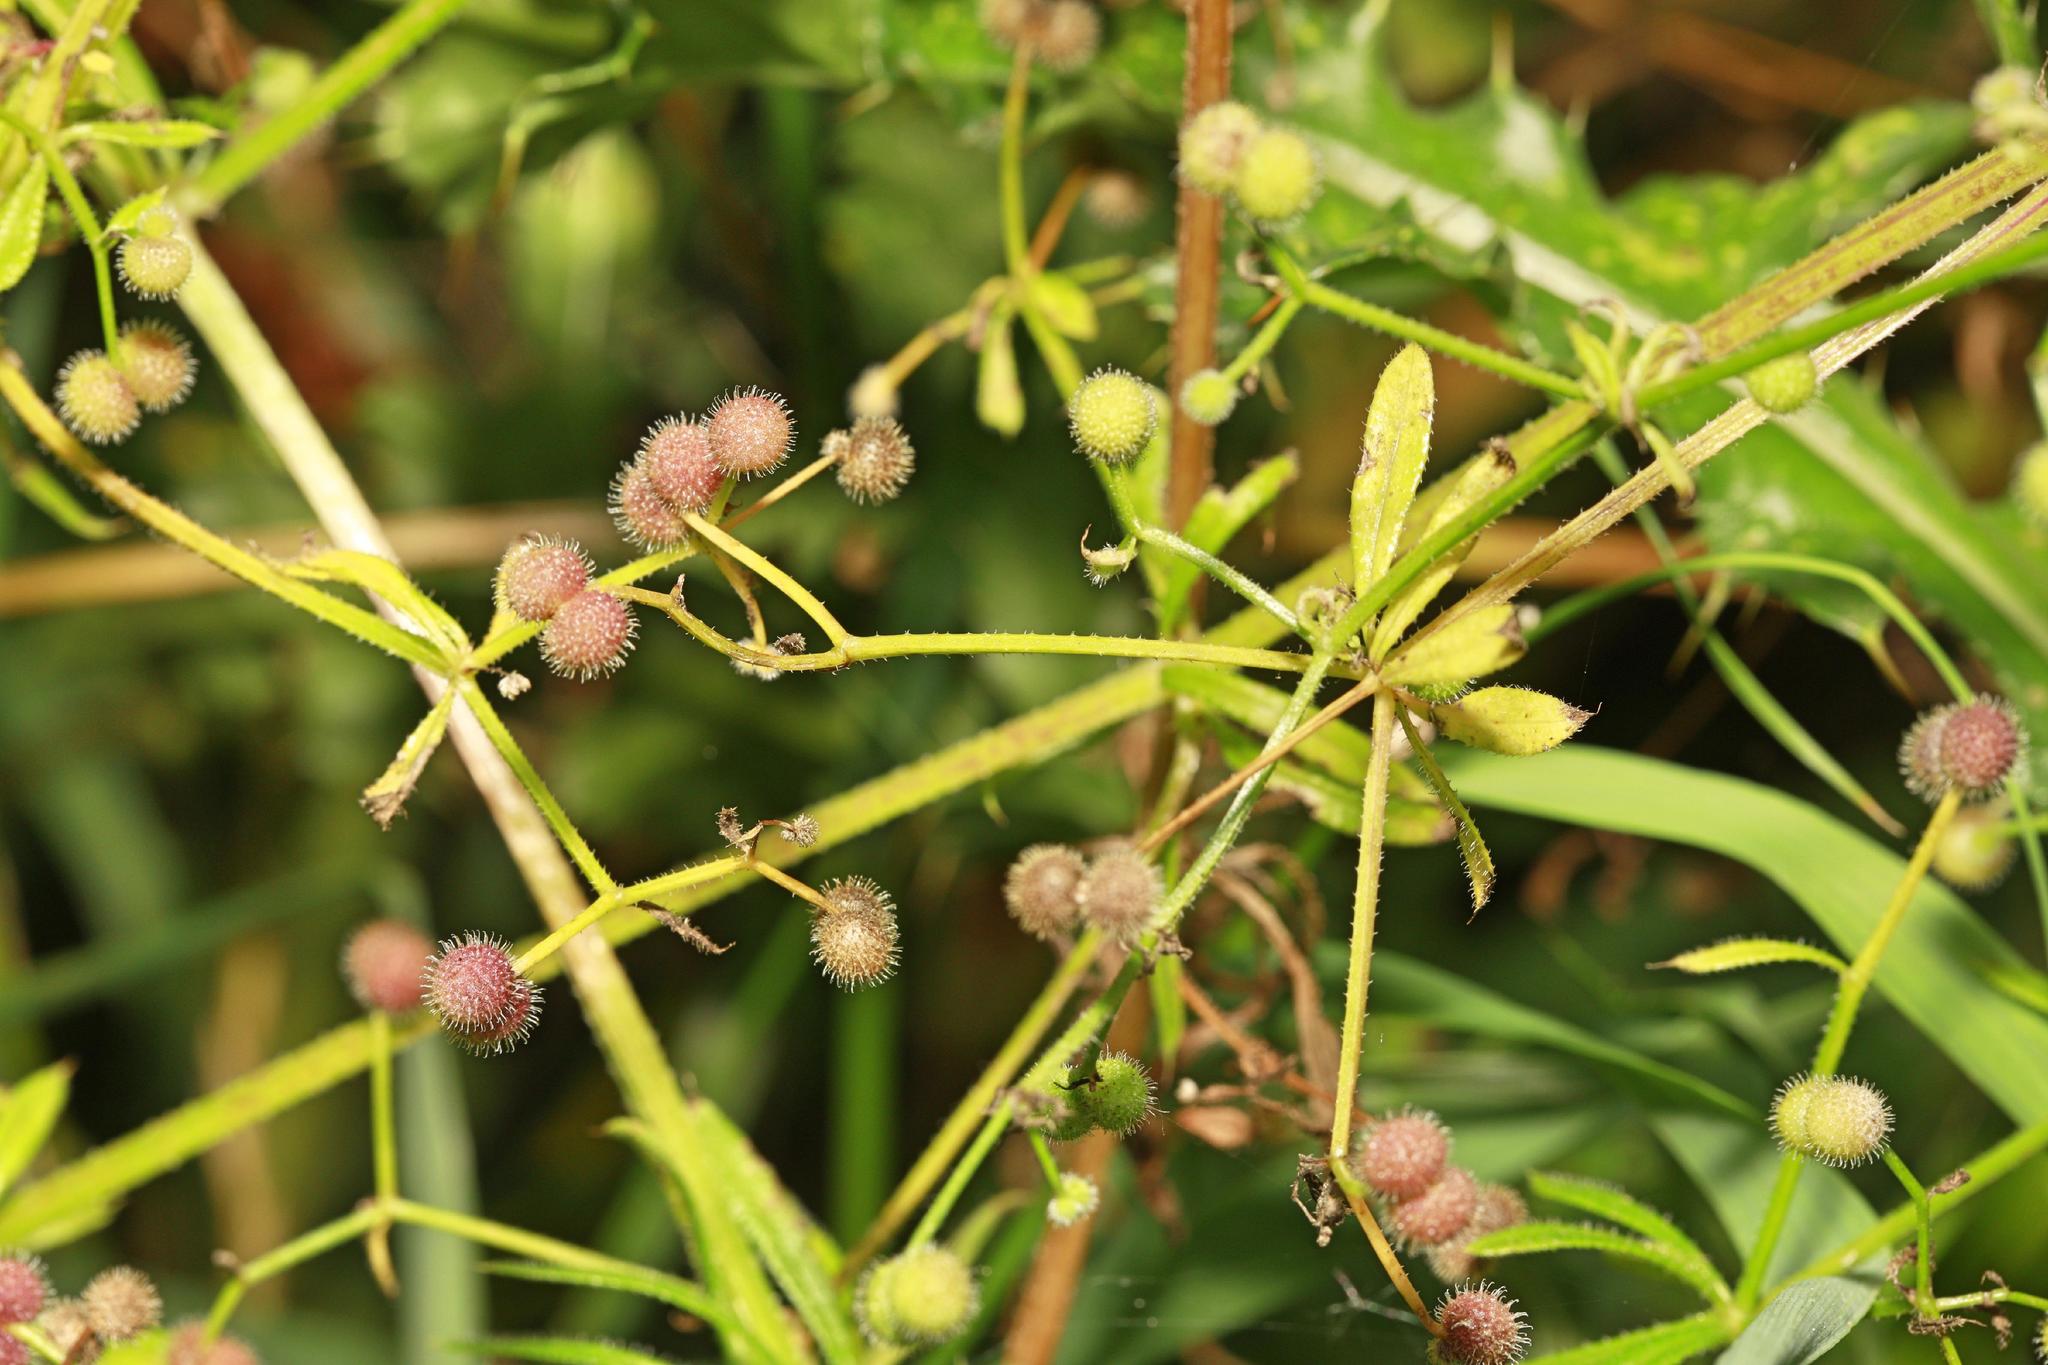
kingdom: Plantae
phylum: Tracheophyta
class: Magnoliopsida
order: Gentianales
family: Rubiaceae
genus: Galium
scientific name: Galium aparine
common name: Cleavers
